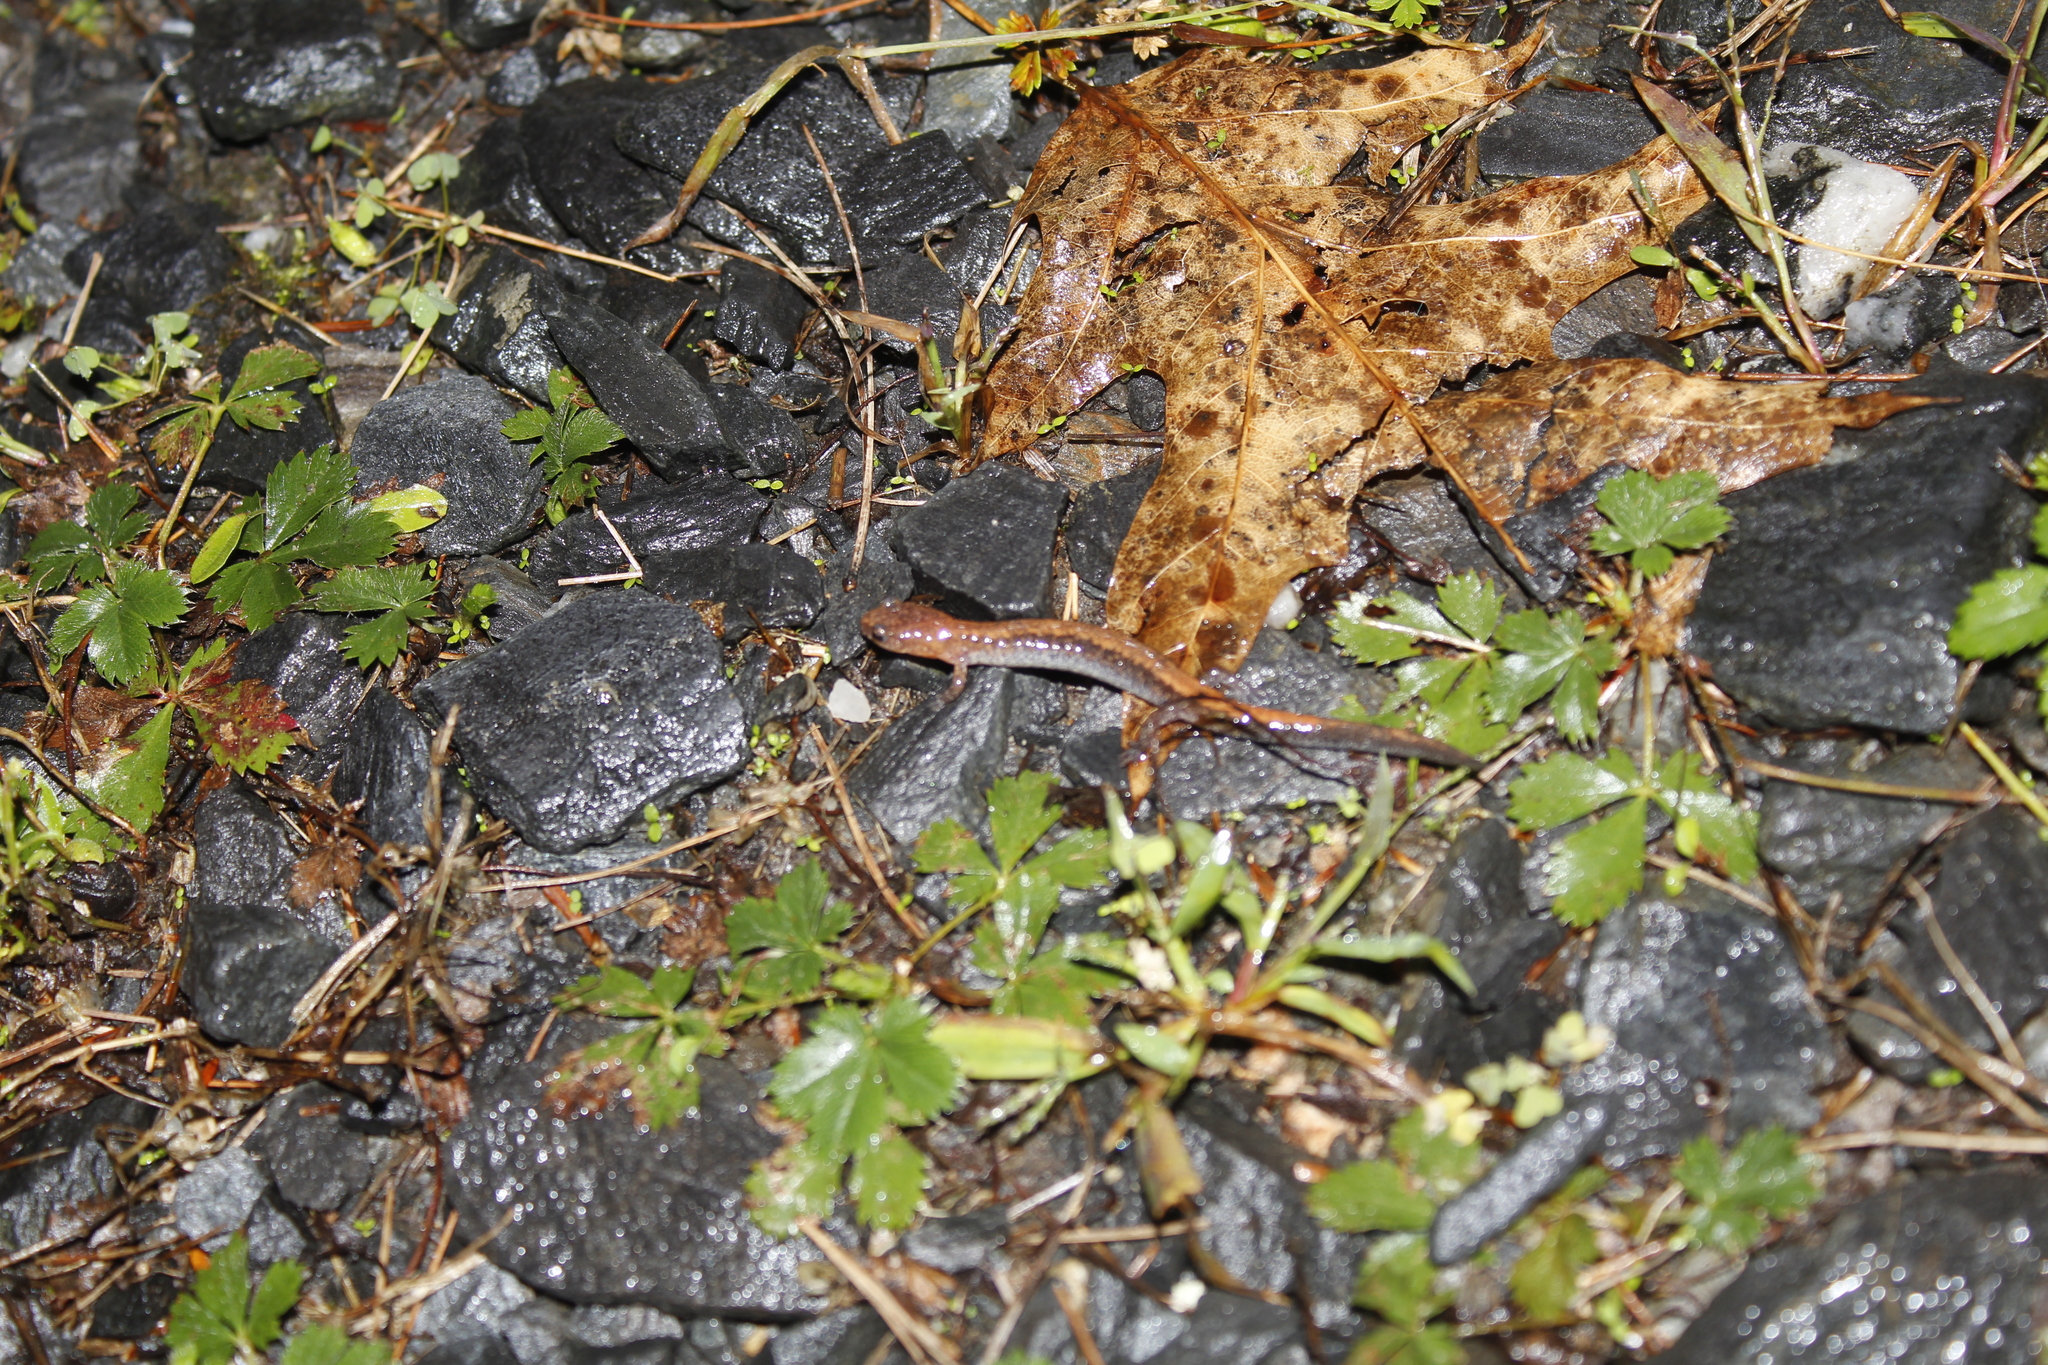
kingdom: Animalia
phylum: Chordata
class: Amphibia
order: Caudata
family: Plethodontidae
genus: Plethodon
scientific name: Plethodon cinereus
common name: Redback salamander
